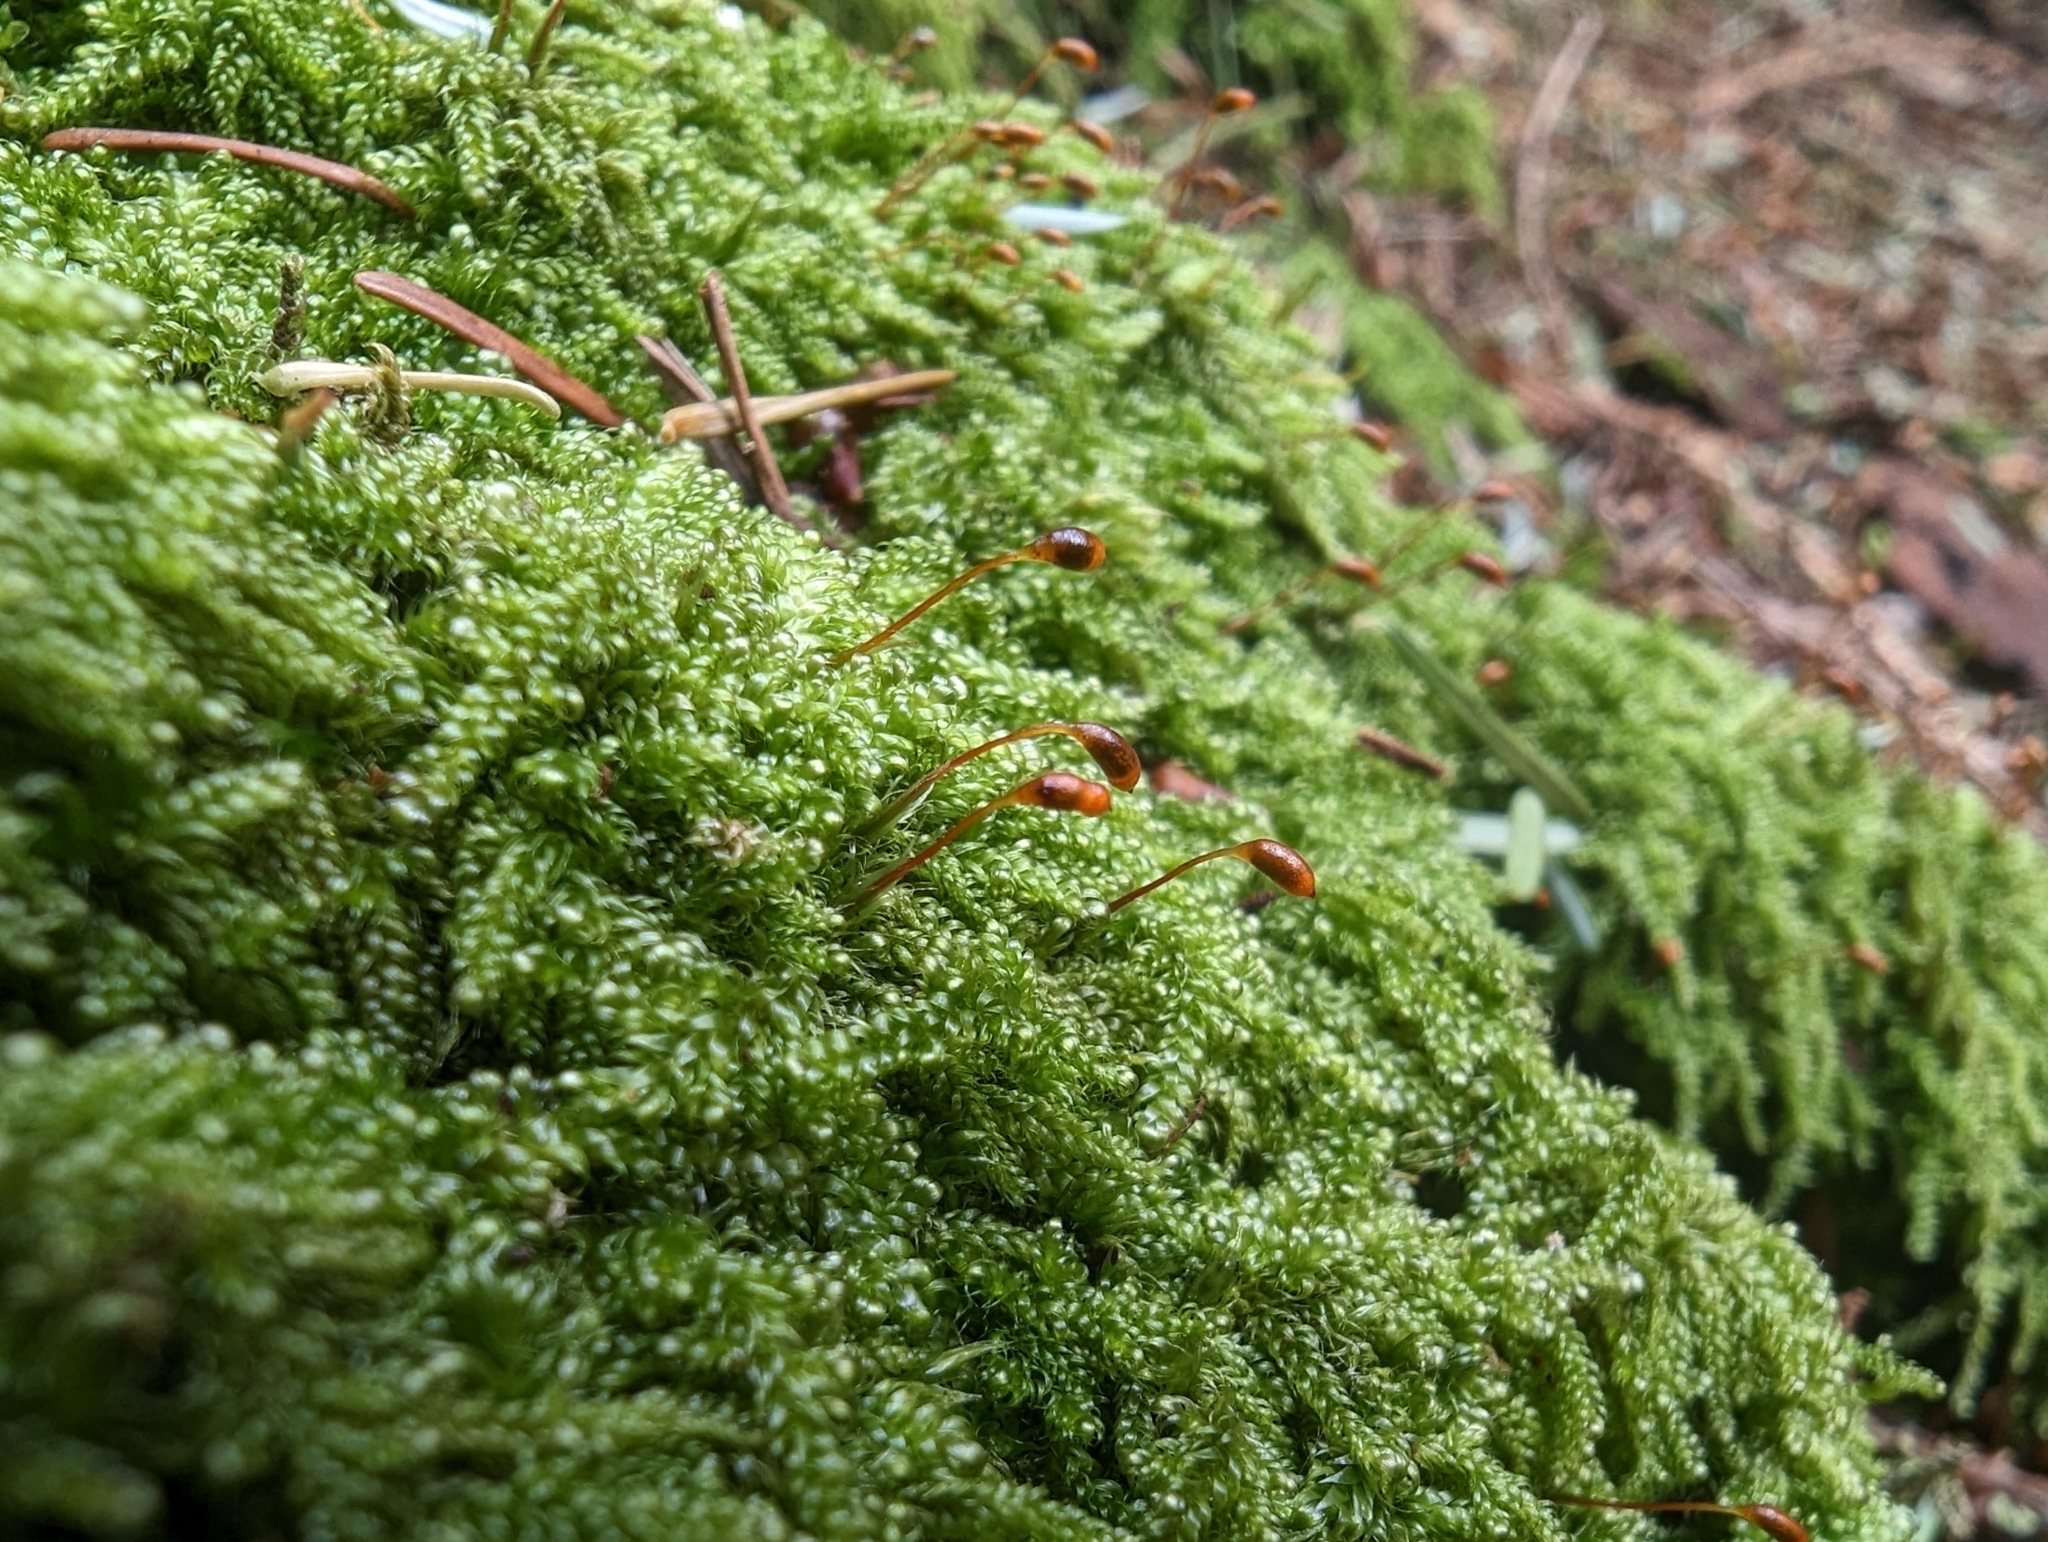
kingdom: Plantae
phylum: Bryophyta
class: Bryopsida
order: Hypnales
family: Pylaisiadelphaceae
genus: Trochophyllohypnum
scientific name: Trochophyllohypnum circinale
